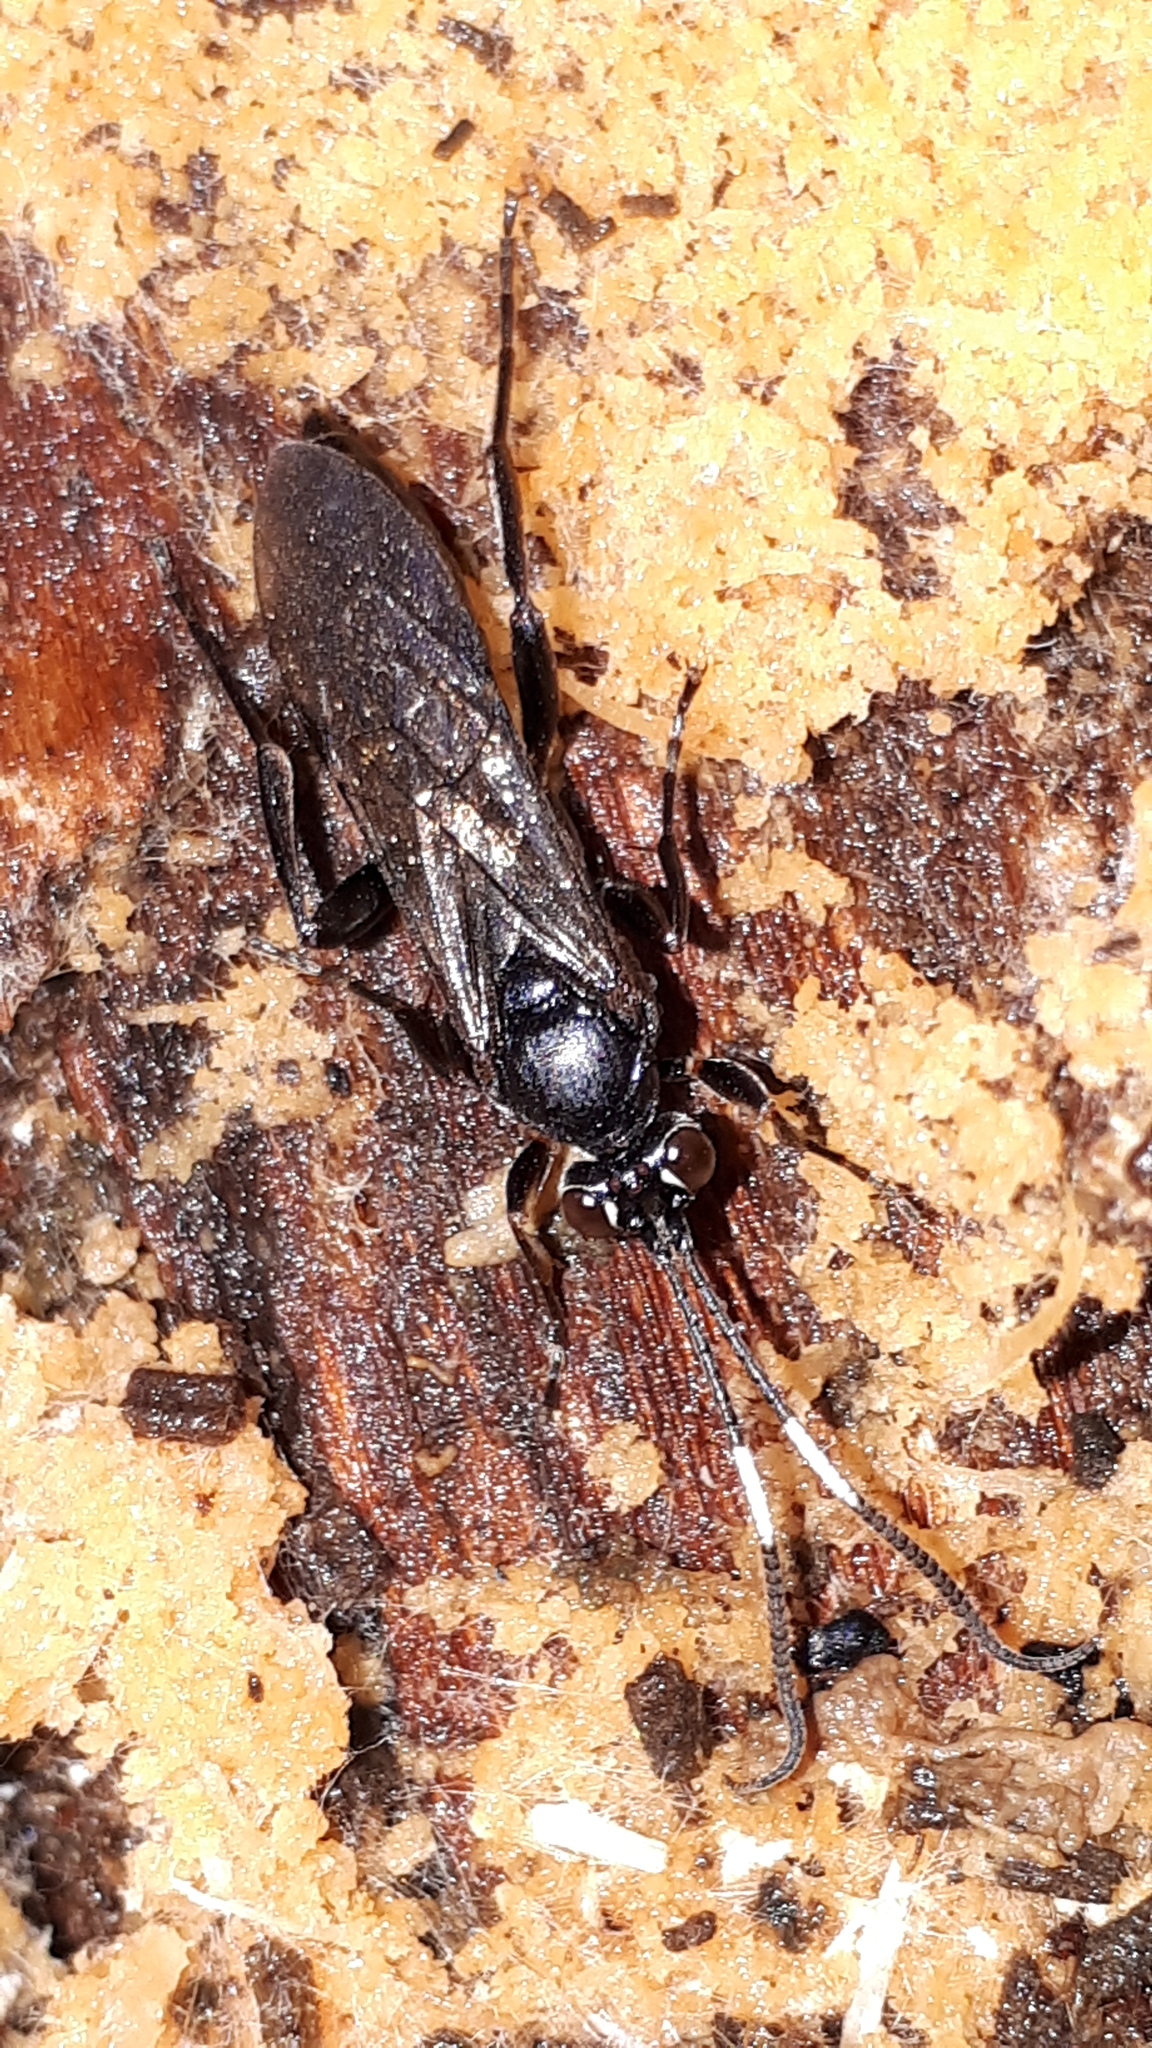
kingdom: Animalia
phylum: Arthropoda
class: Insecta
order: Hymenoptera
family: Ichneumonidae
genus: Syspasis
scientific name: Syspasis albiguttata
